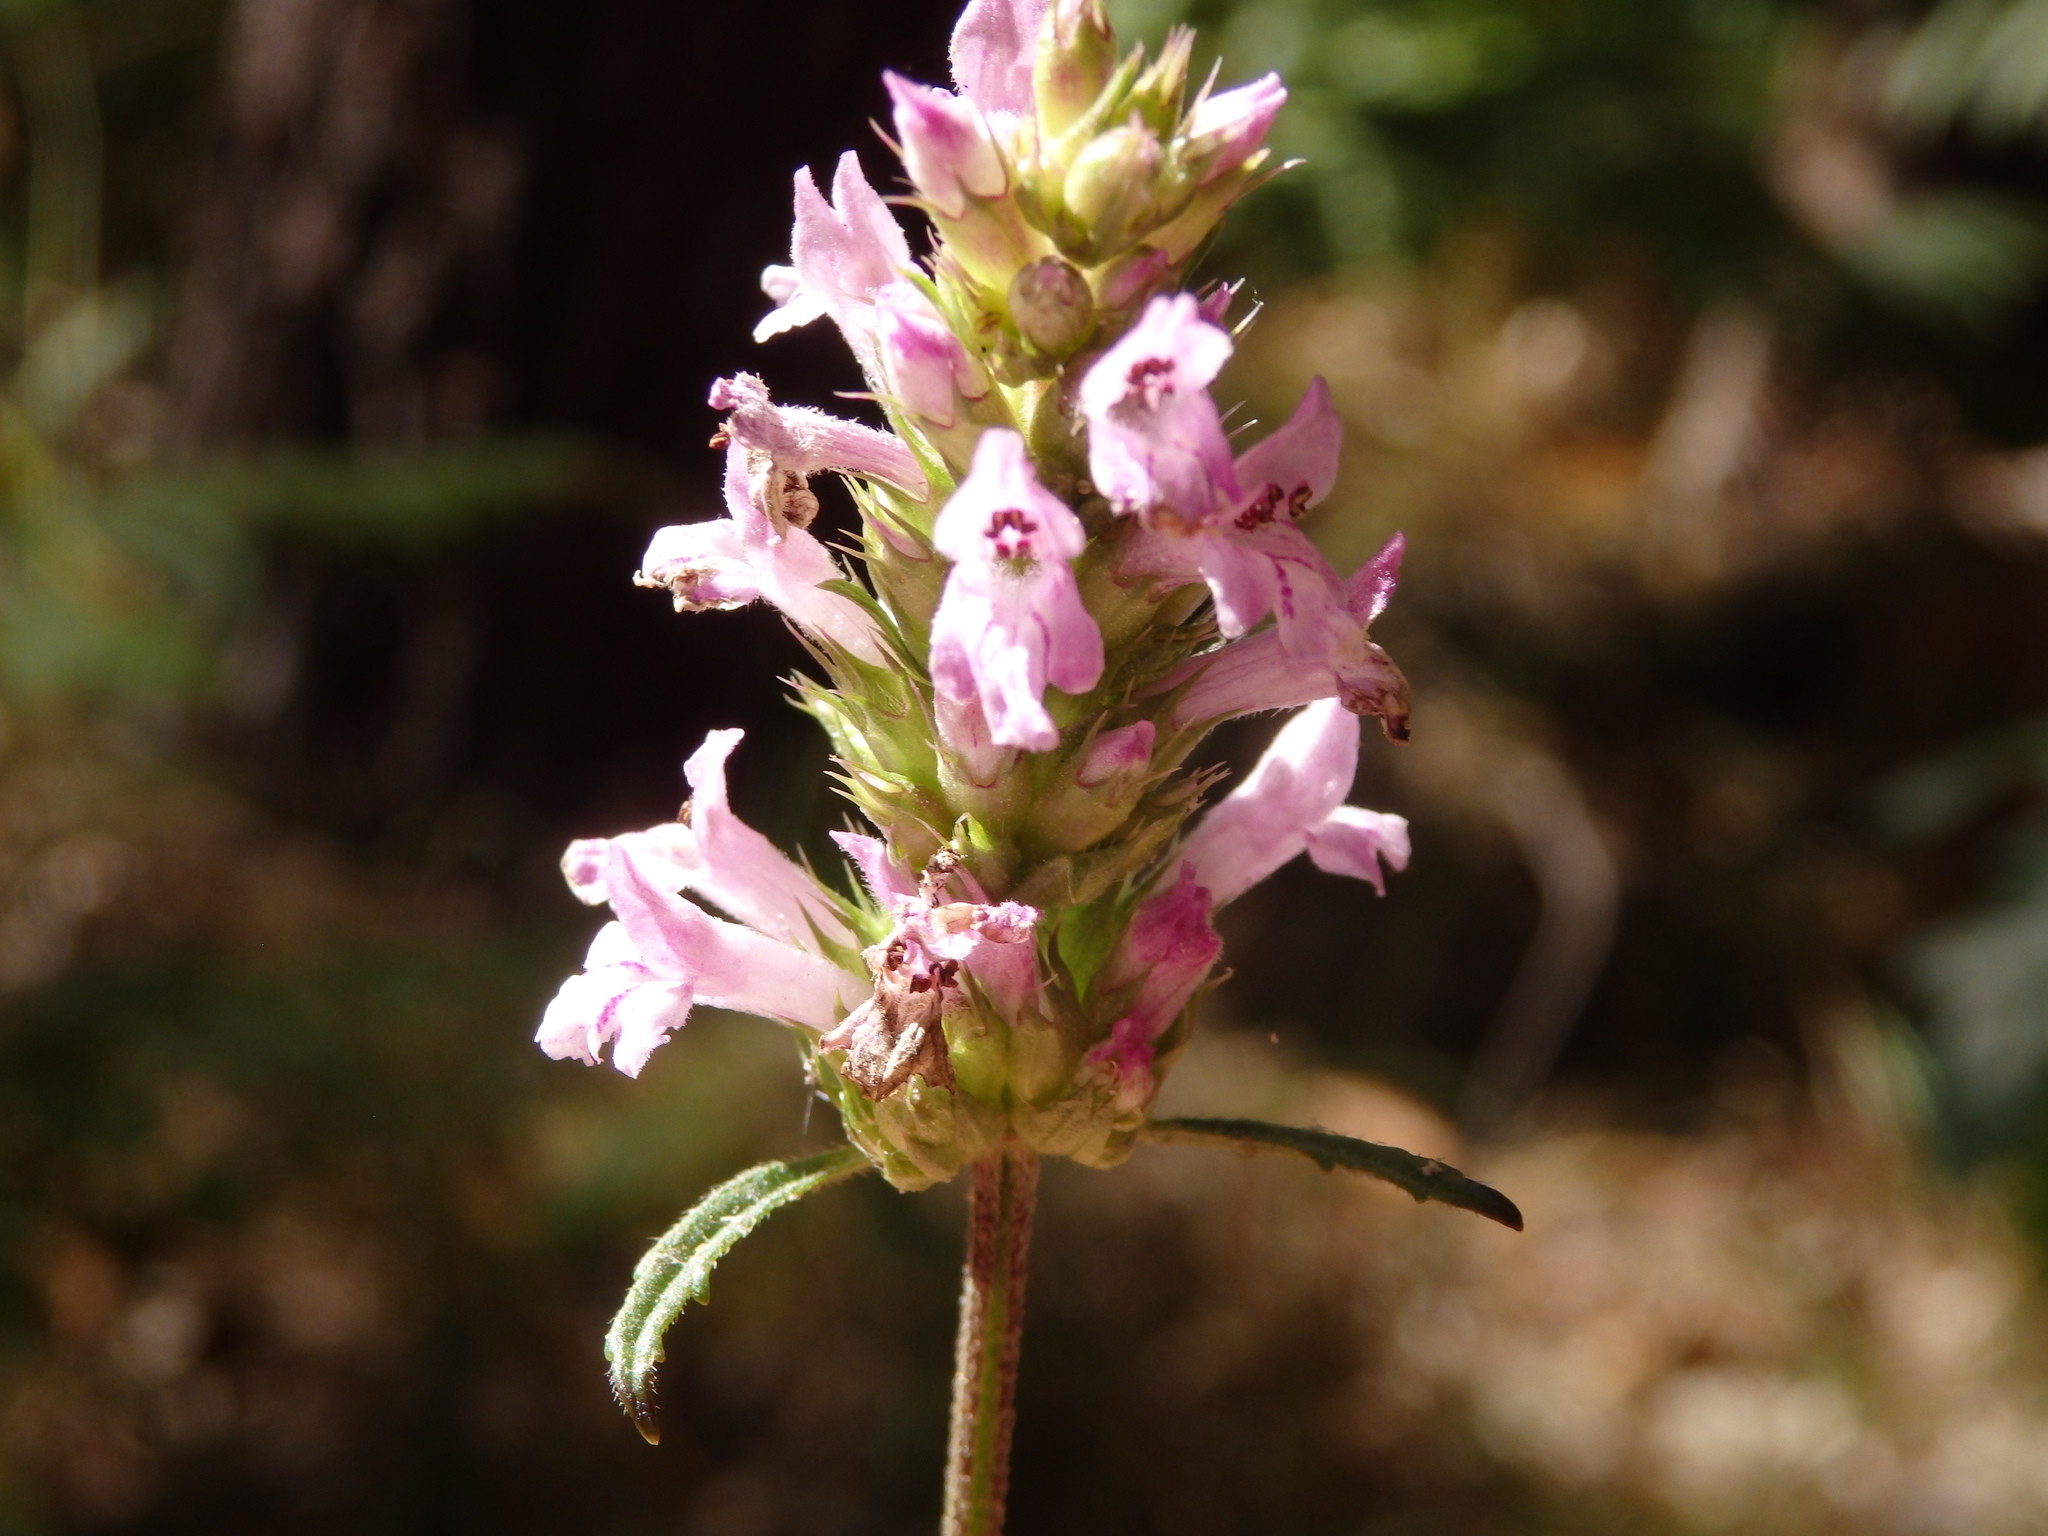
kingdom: Plantae
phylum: Tracheophyta
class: Magnoliopsida
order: Lamiales
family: Lamiaceae
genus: Betonica
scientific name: Betonica officinalis
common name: Bishop's-wort
